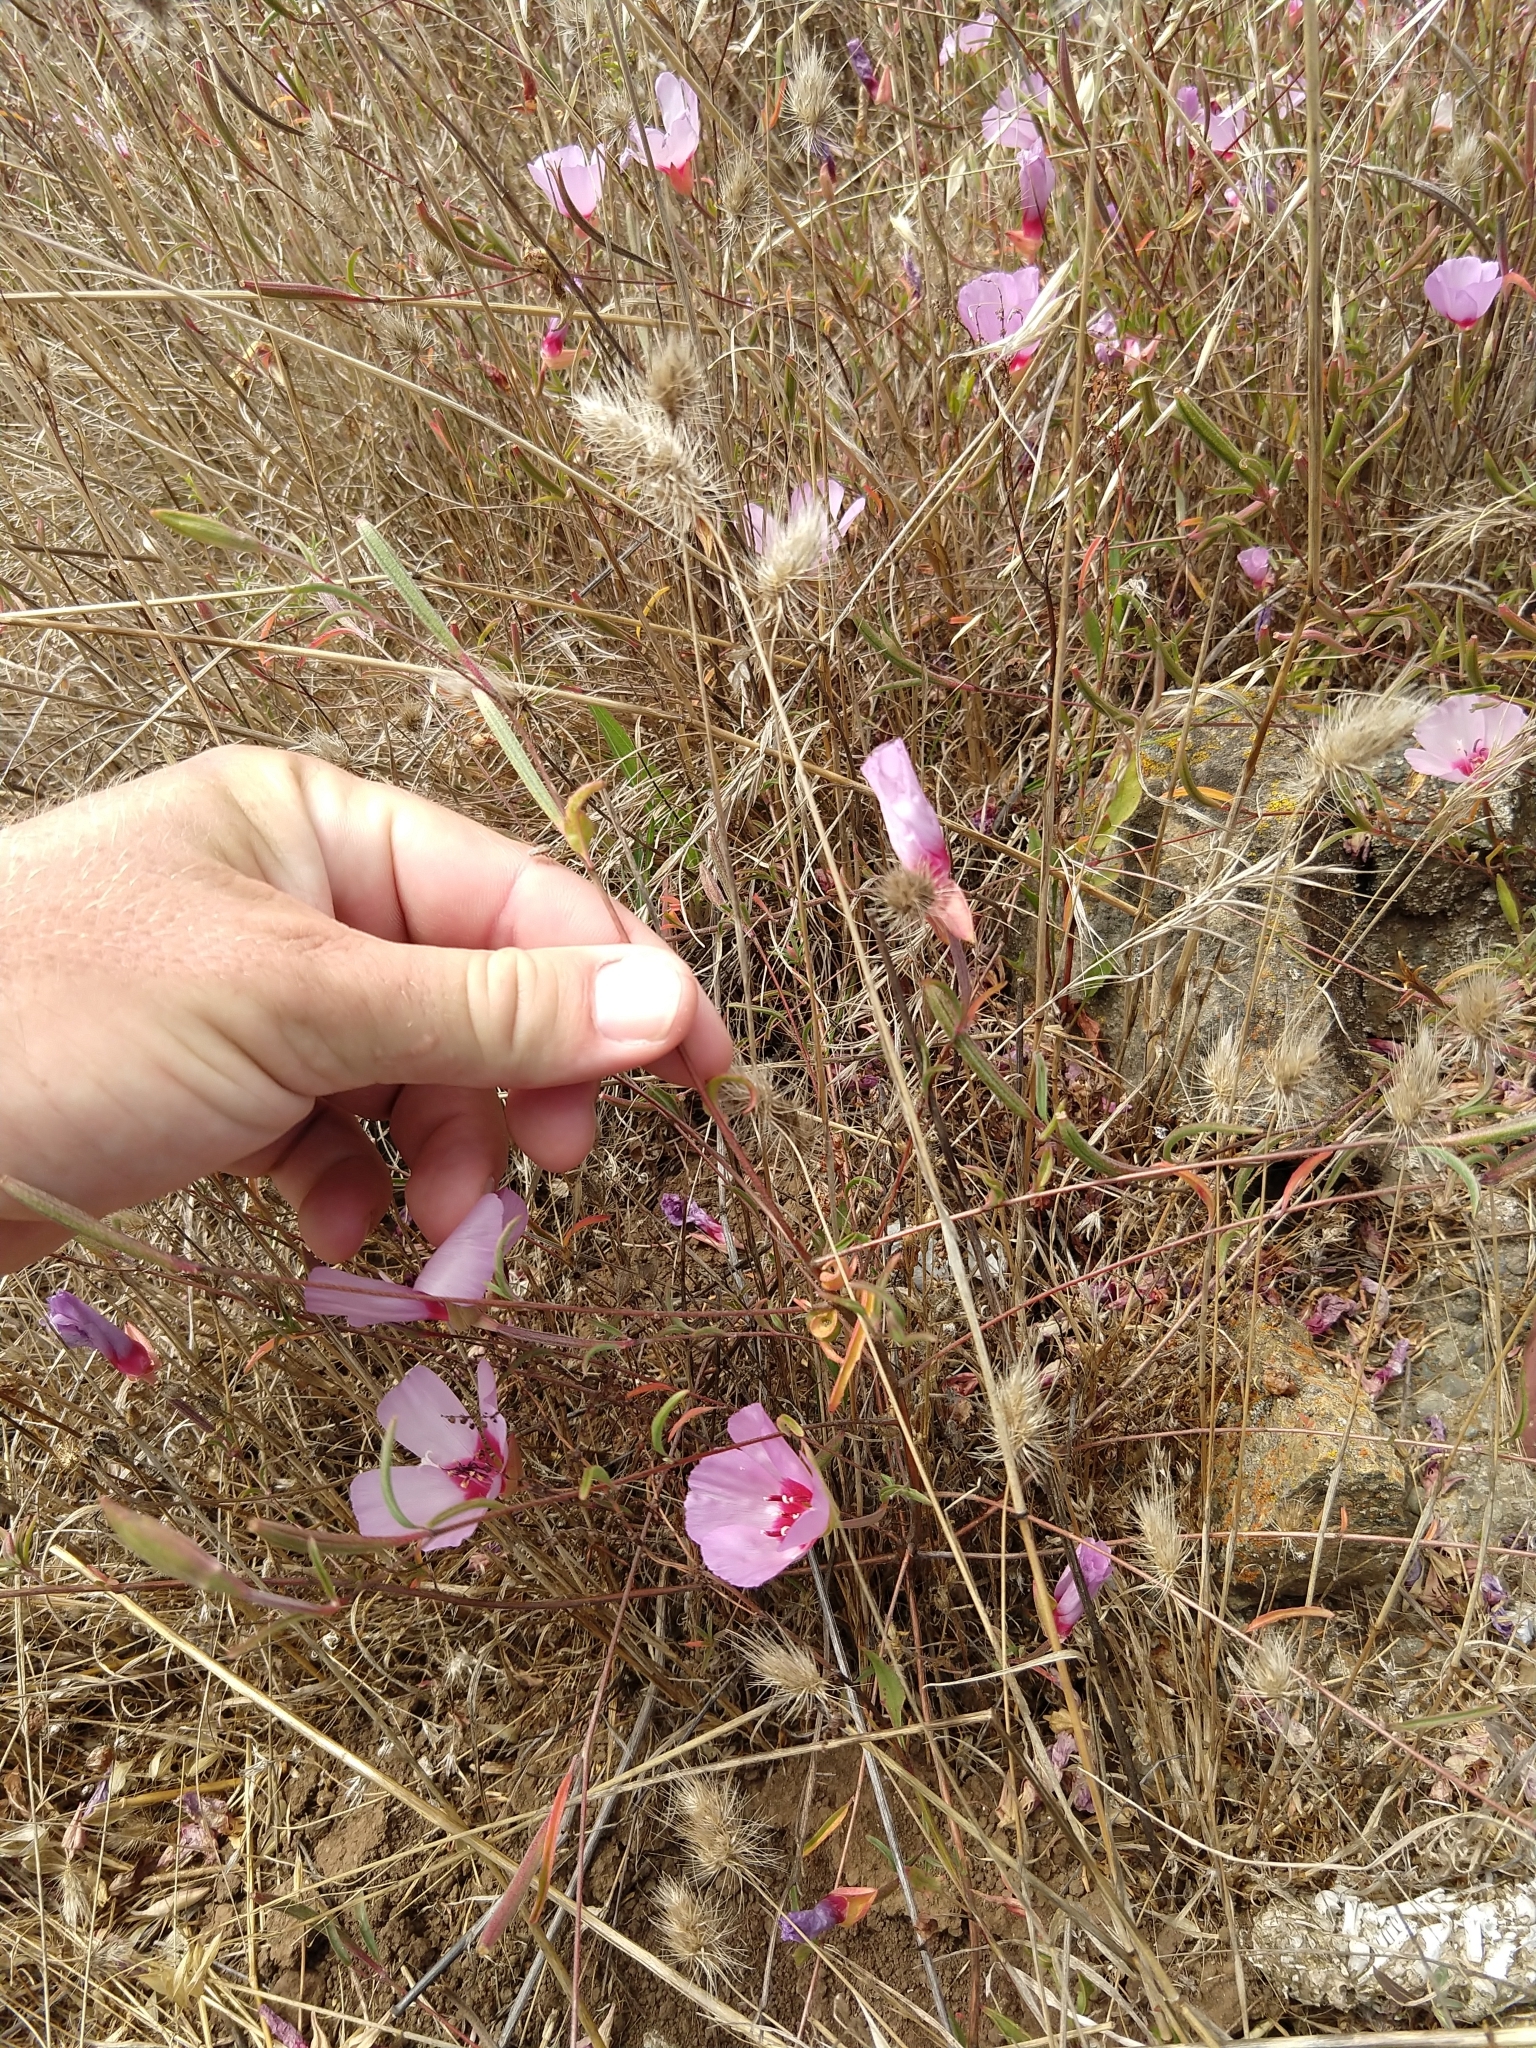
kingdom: Plantae
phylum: Tracheophyta
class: Magnoliopsida
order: Myrtales
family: Onagraceae
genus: Clarkia
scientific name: Clarkia rubicunda
